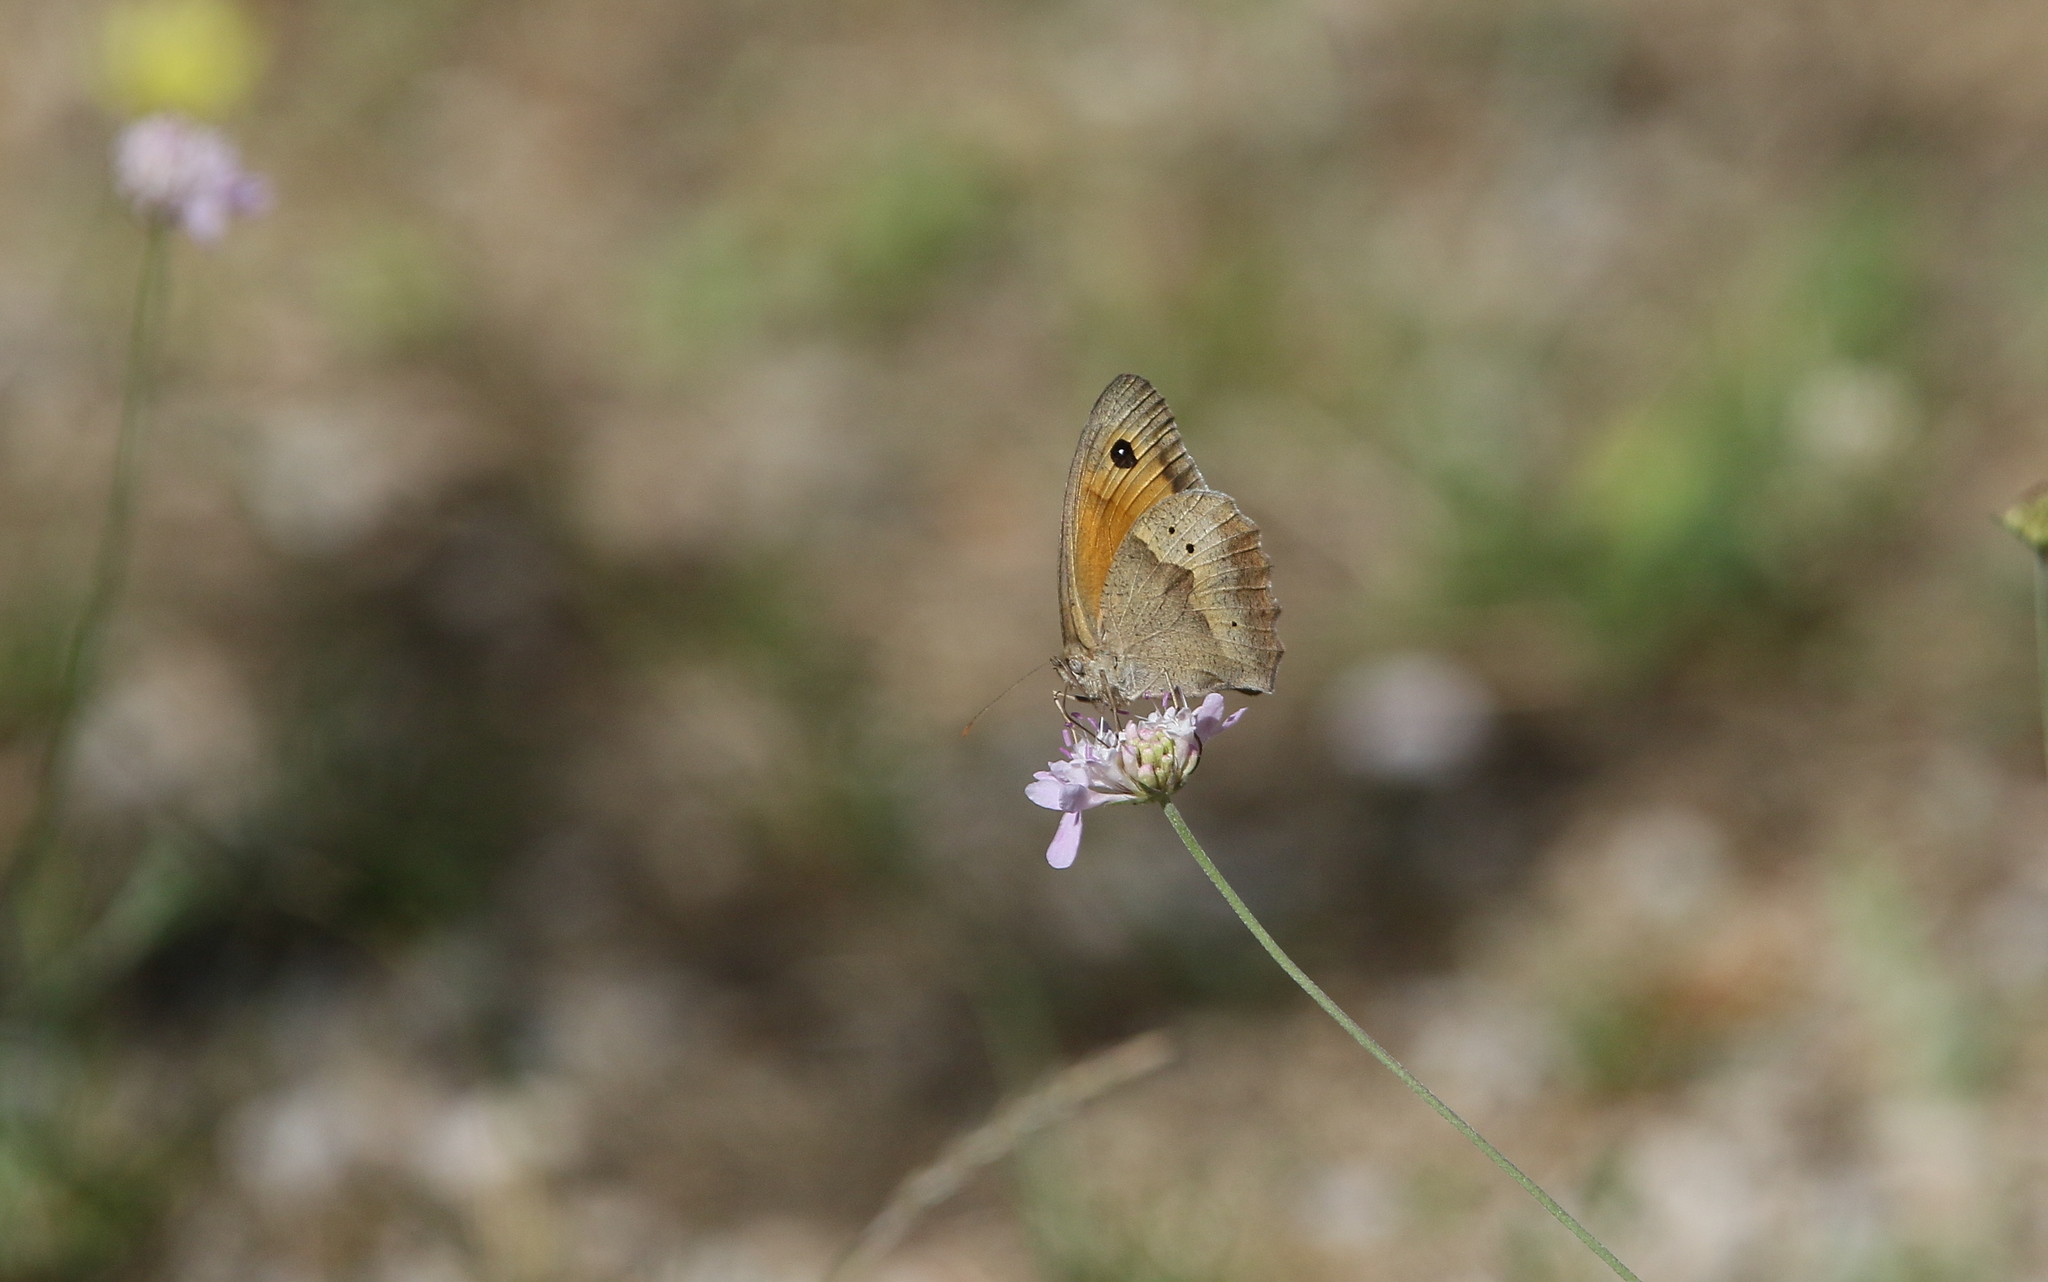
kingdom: Animalia
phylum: Arthropoda
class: Insecta
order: Lepidoptera
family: Nymphalidae
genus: Maniola
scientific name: Maniola jurtina
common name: Meadow brown
